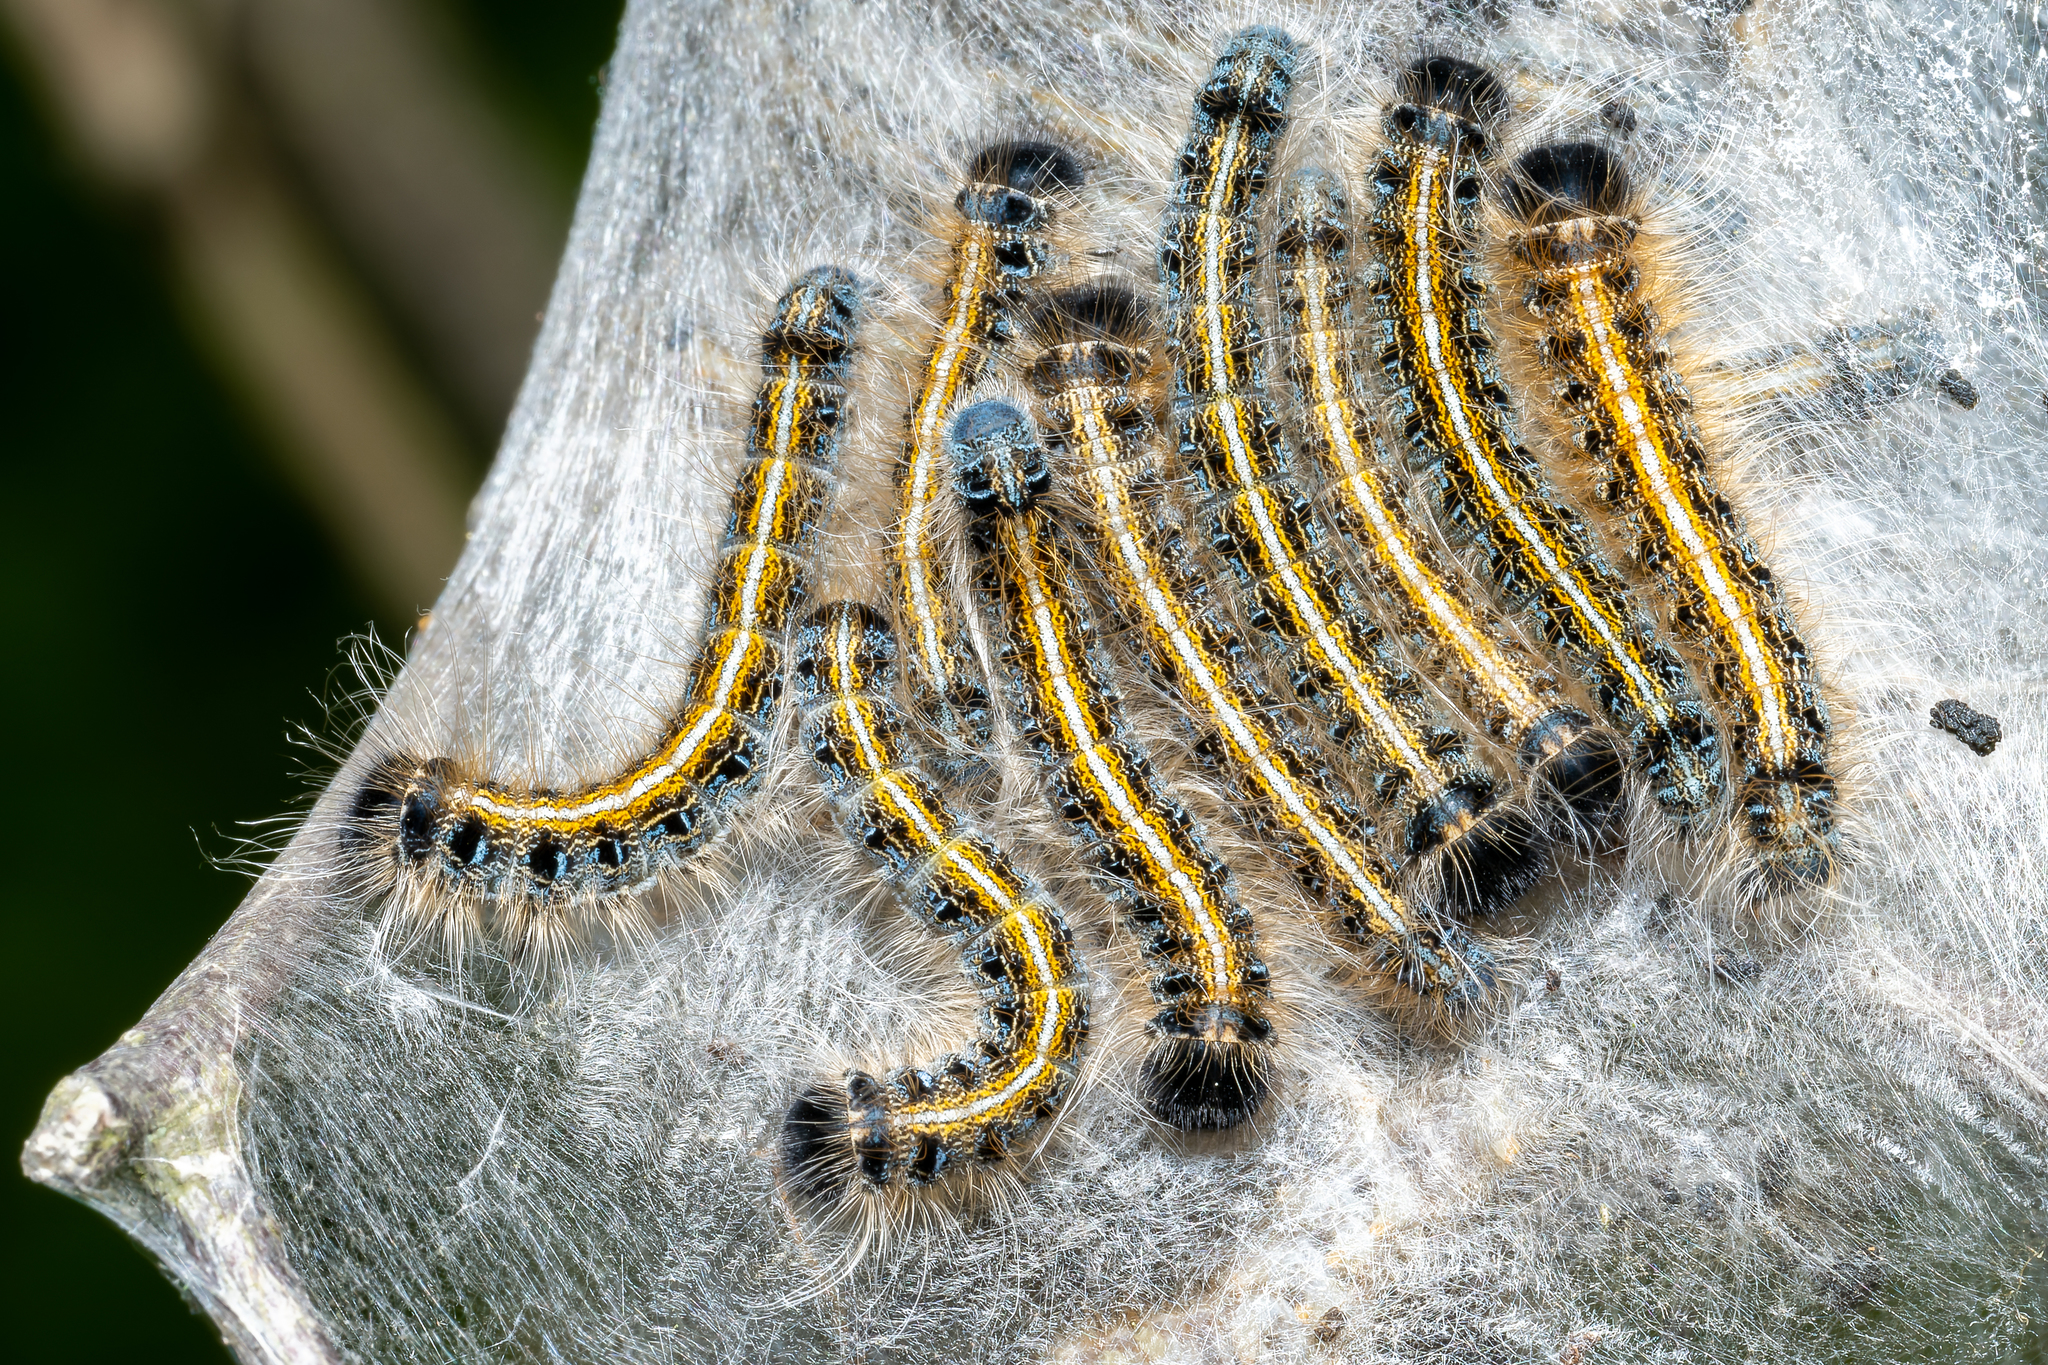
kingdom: Animalia
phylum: Arthropoda
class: Insecta
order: Lepidoptera
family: Lasiocampidae
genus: Malacosoma
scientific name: Malacosoma americana
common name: Eastern tent caterpillar moth
